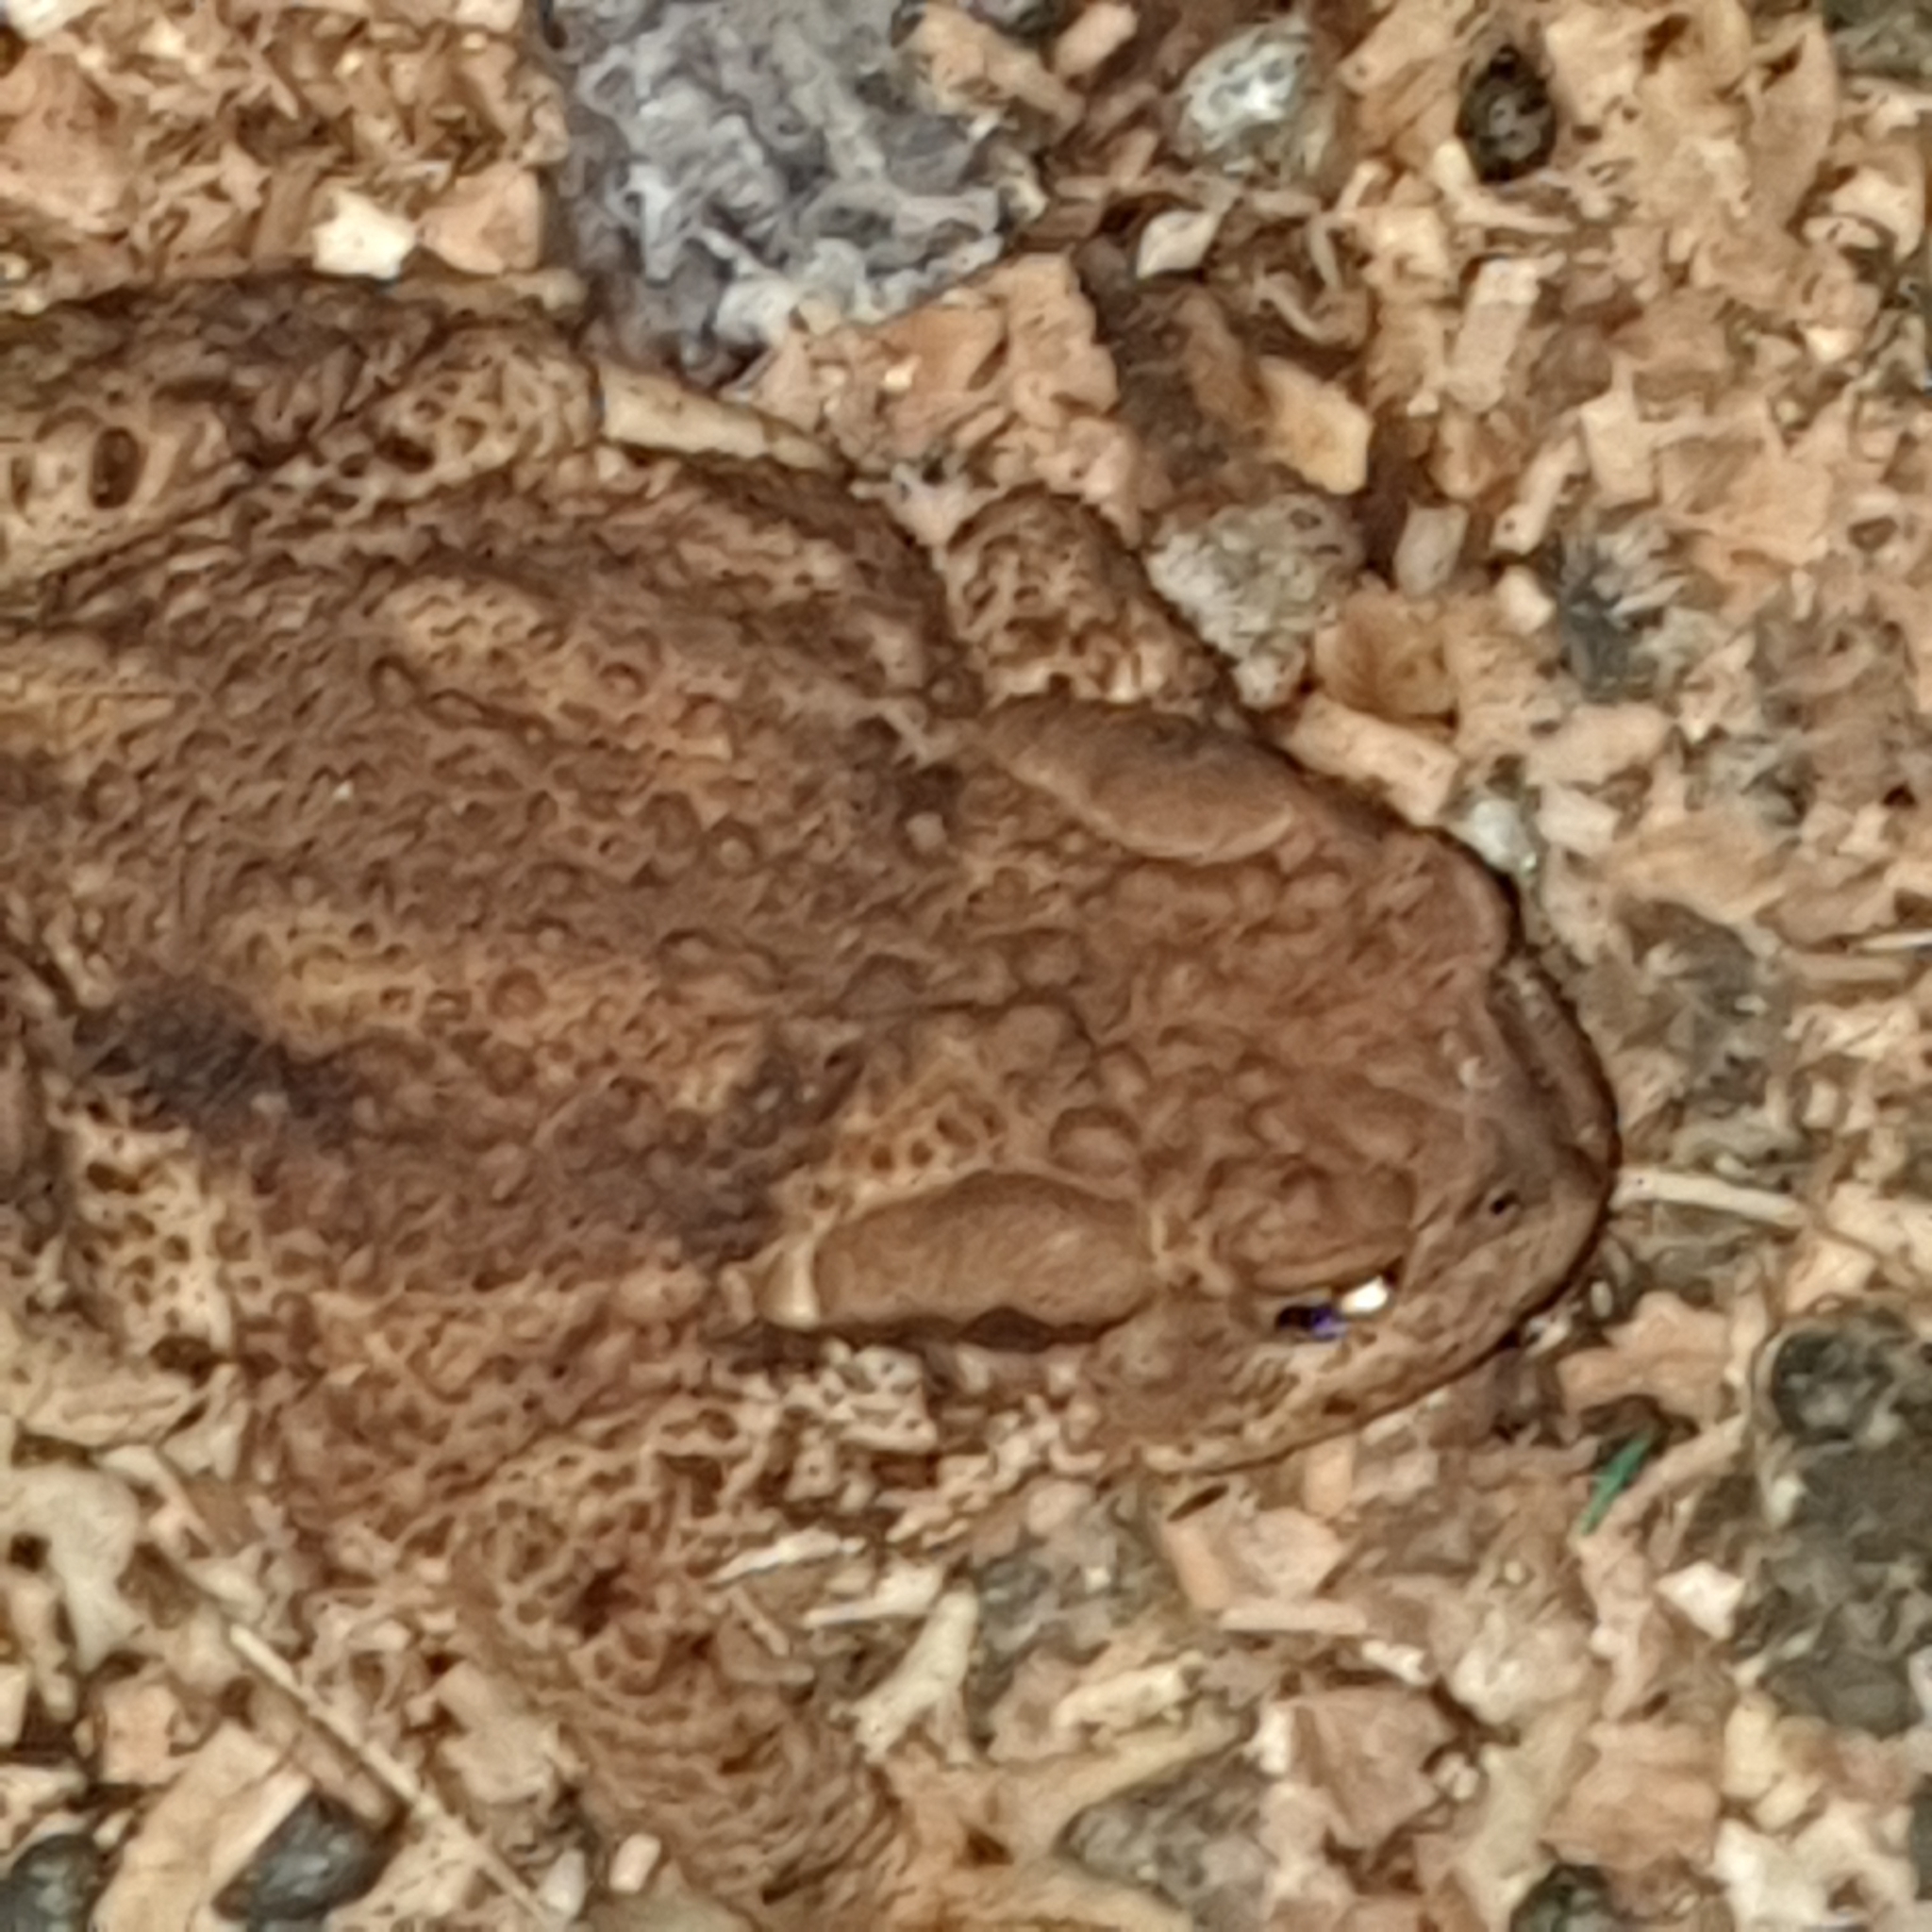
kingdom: Animalia
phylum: Chordata
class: Amphibia
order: Anura
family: Bufonidae
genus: Bufo
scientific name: Bufo bufo
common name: Common toad
